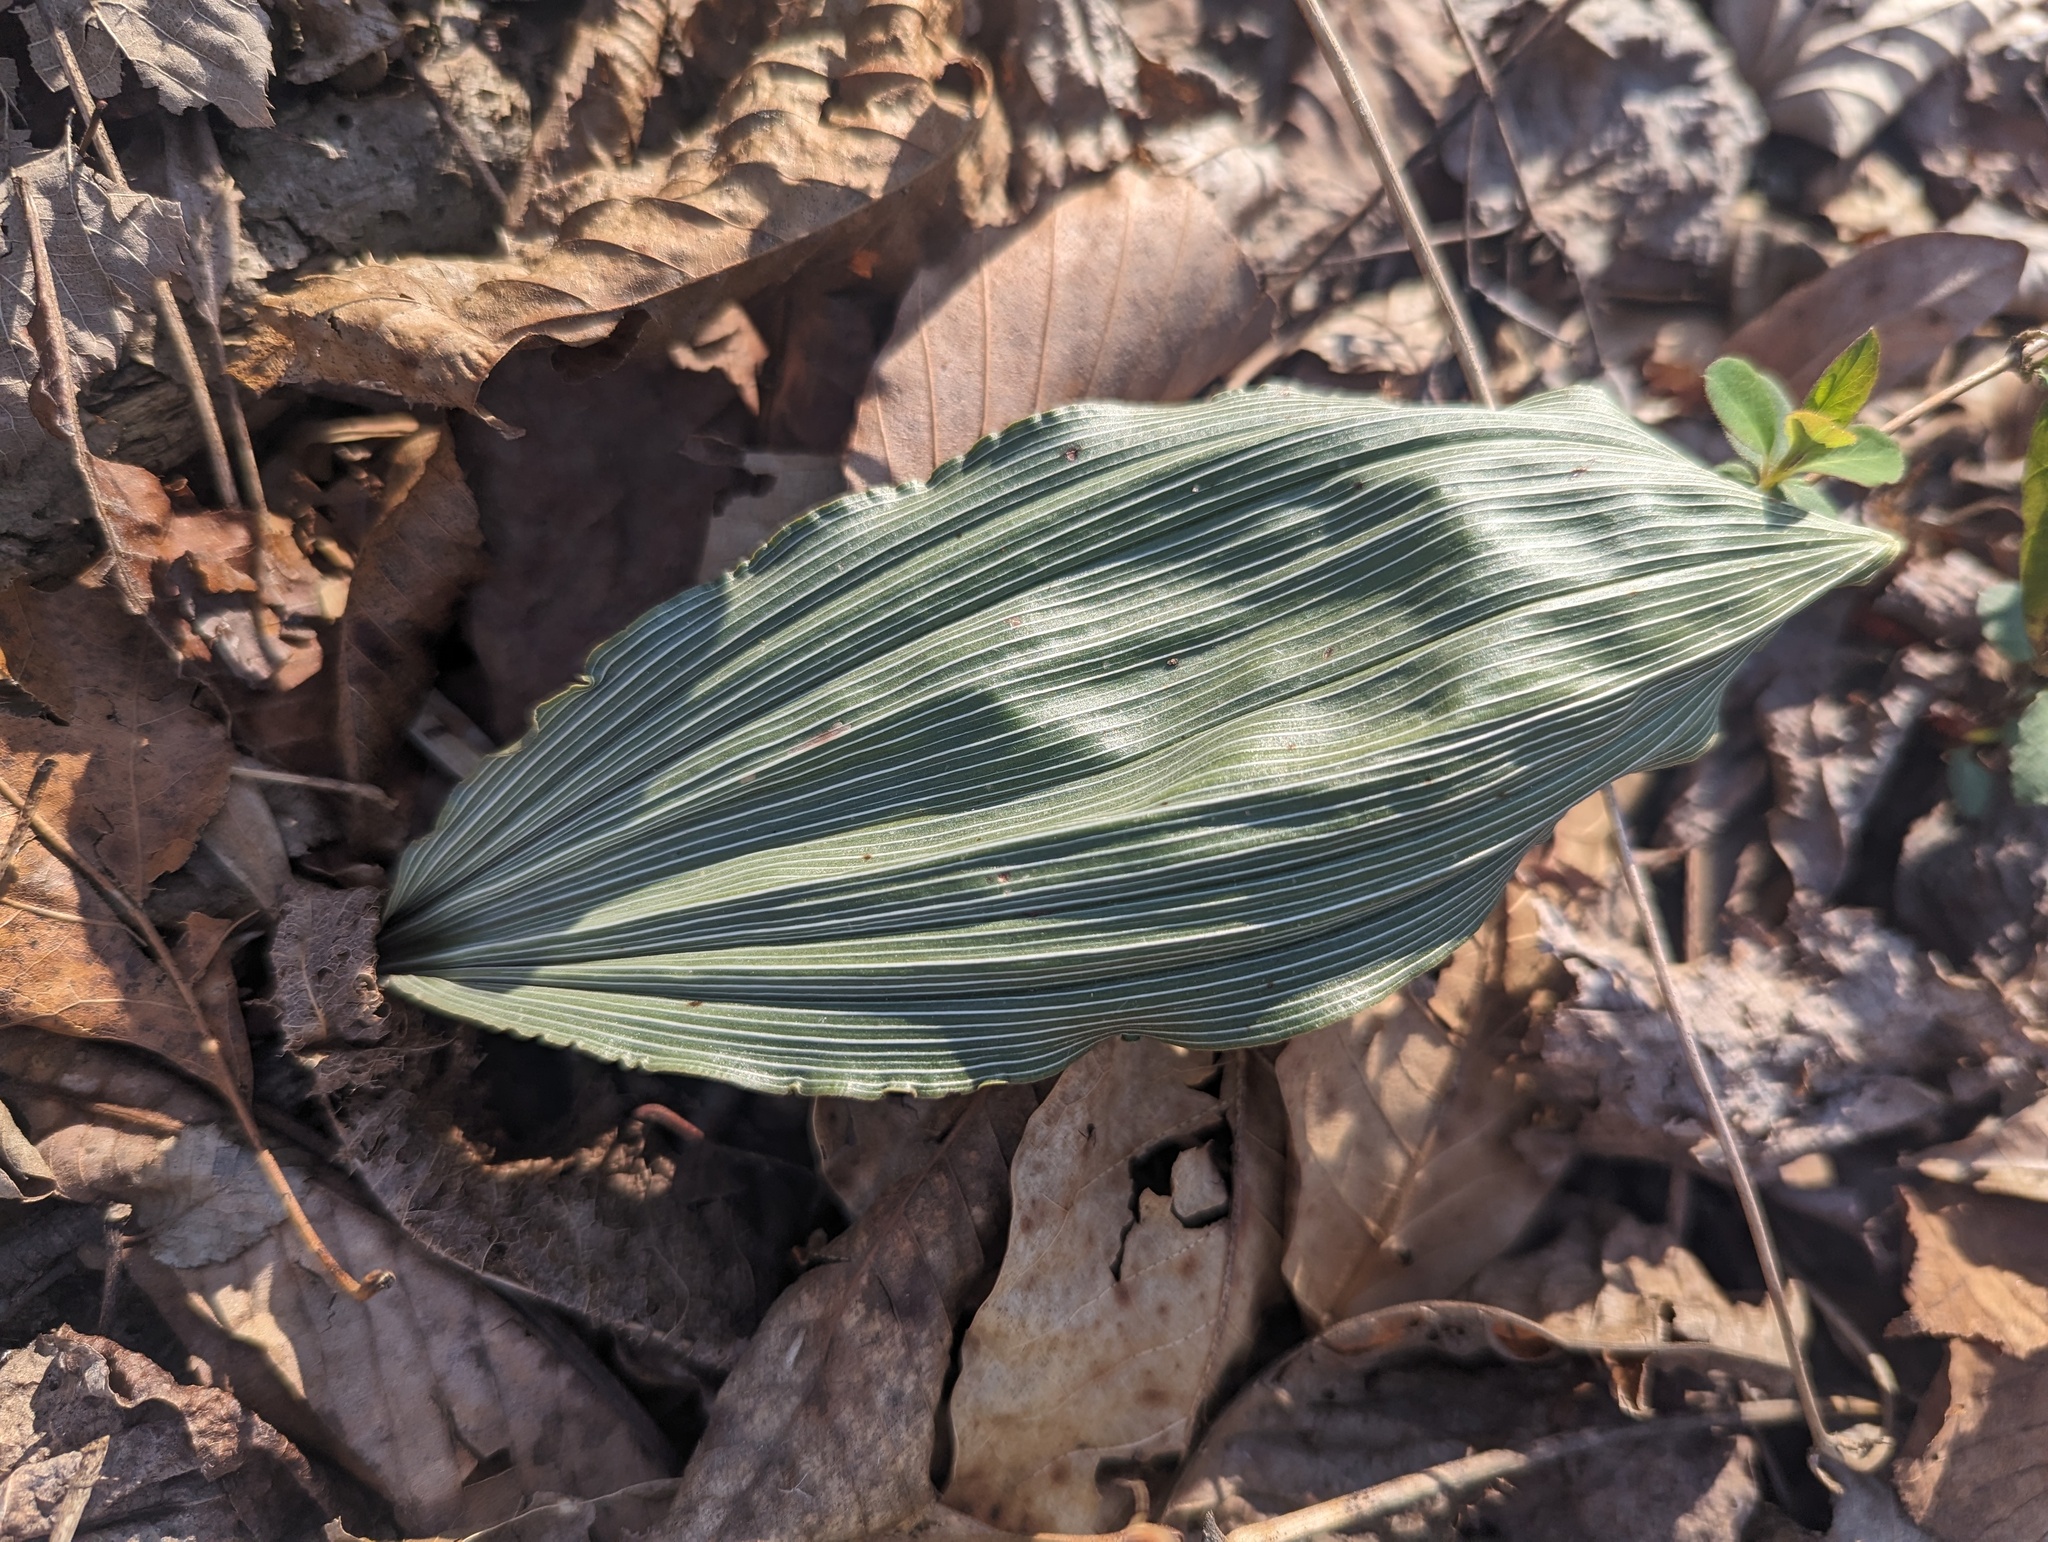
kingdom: Plantae
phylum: Tracheophyta
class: Liliopsida
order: Asparagales
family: Orchidaceae
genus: Aplectrum
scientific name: Aplectrum hyemale
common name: Adam-and-eve
